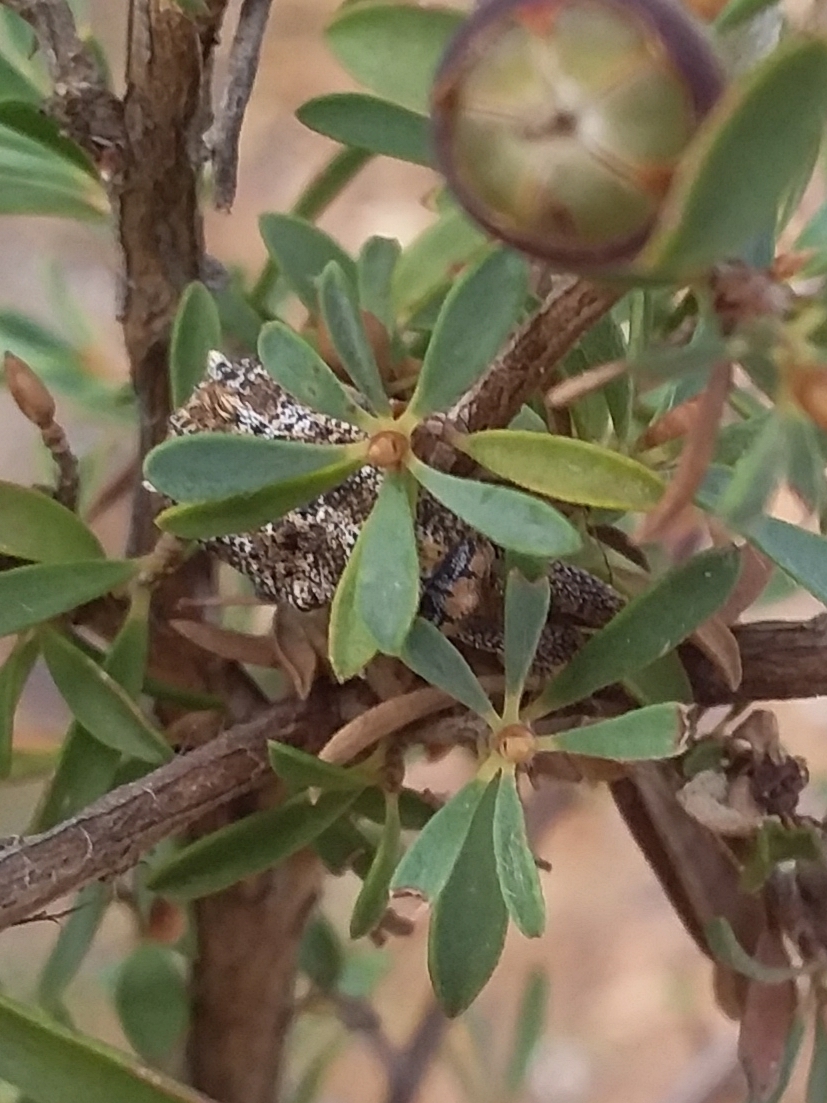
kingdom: Animalia
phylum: Arthropoda
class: Insecta
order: Coleoptera
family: Curculionidae
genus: Orthorhinus
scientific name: Orthorhinus cylindrirostris
